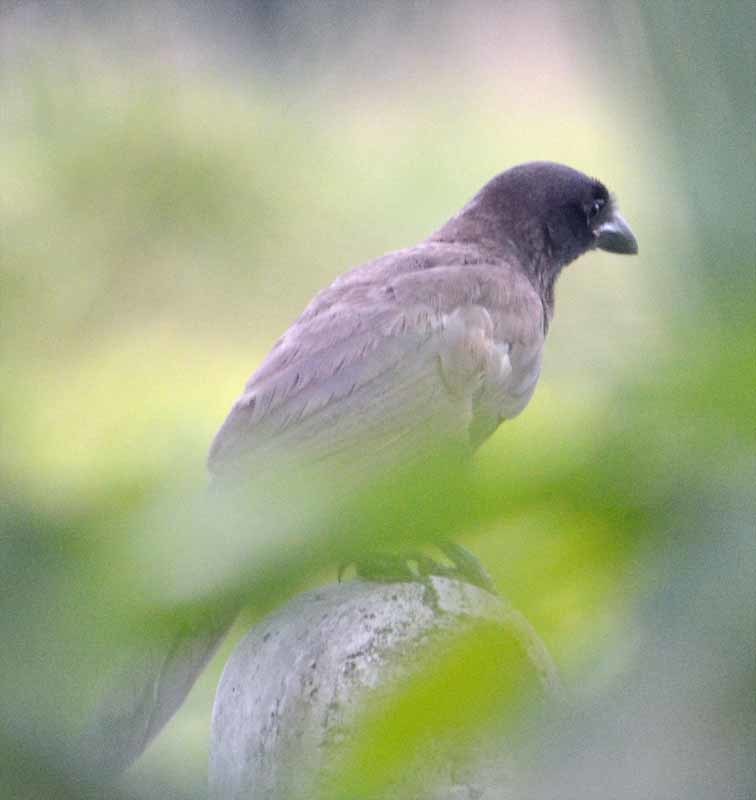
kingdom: Animalia
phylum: Chordata
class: Aves
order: Passeriformes
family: Corvidae
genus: Psilorhinus
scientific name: Psilorhinus morio
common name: Brown jay
